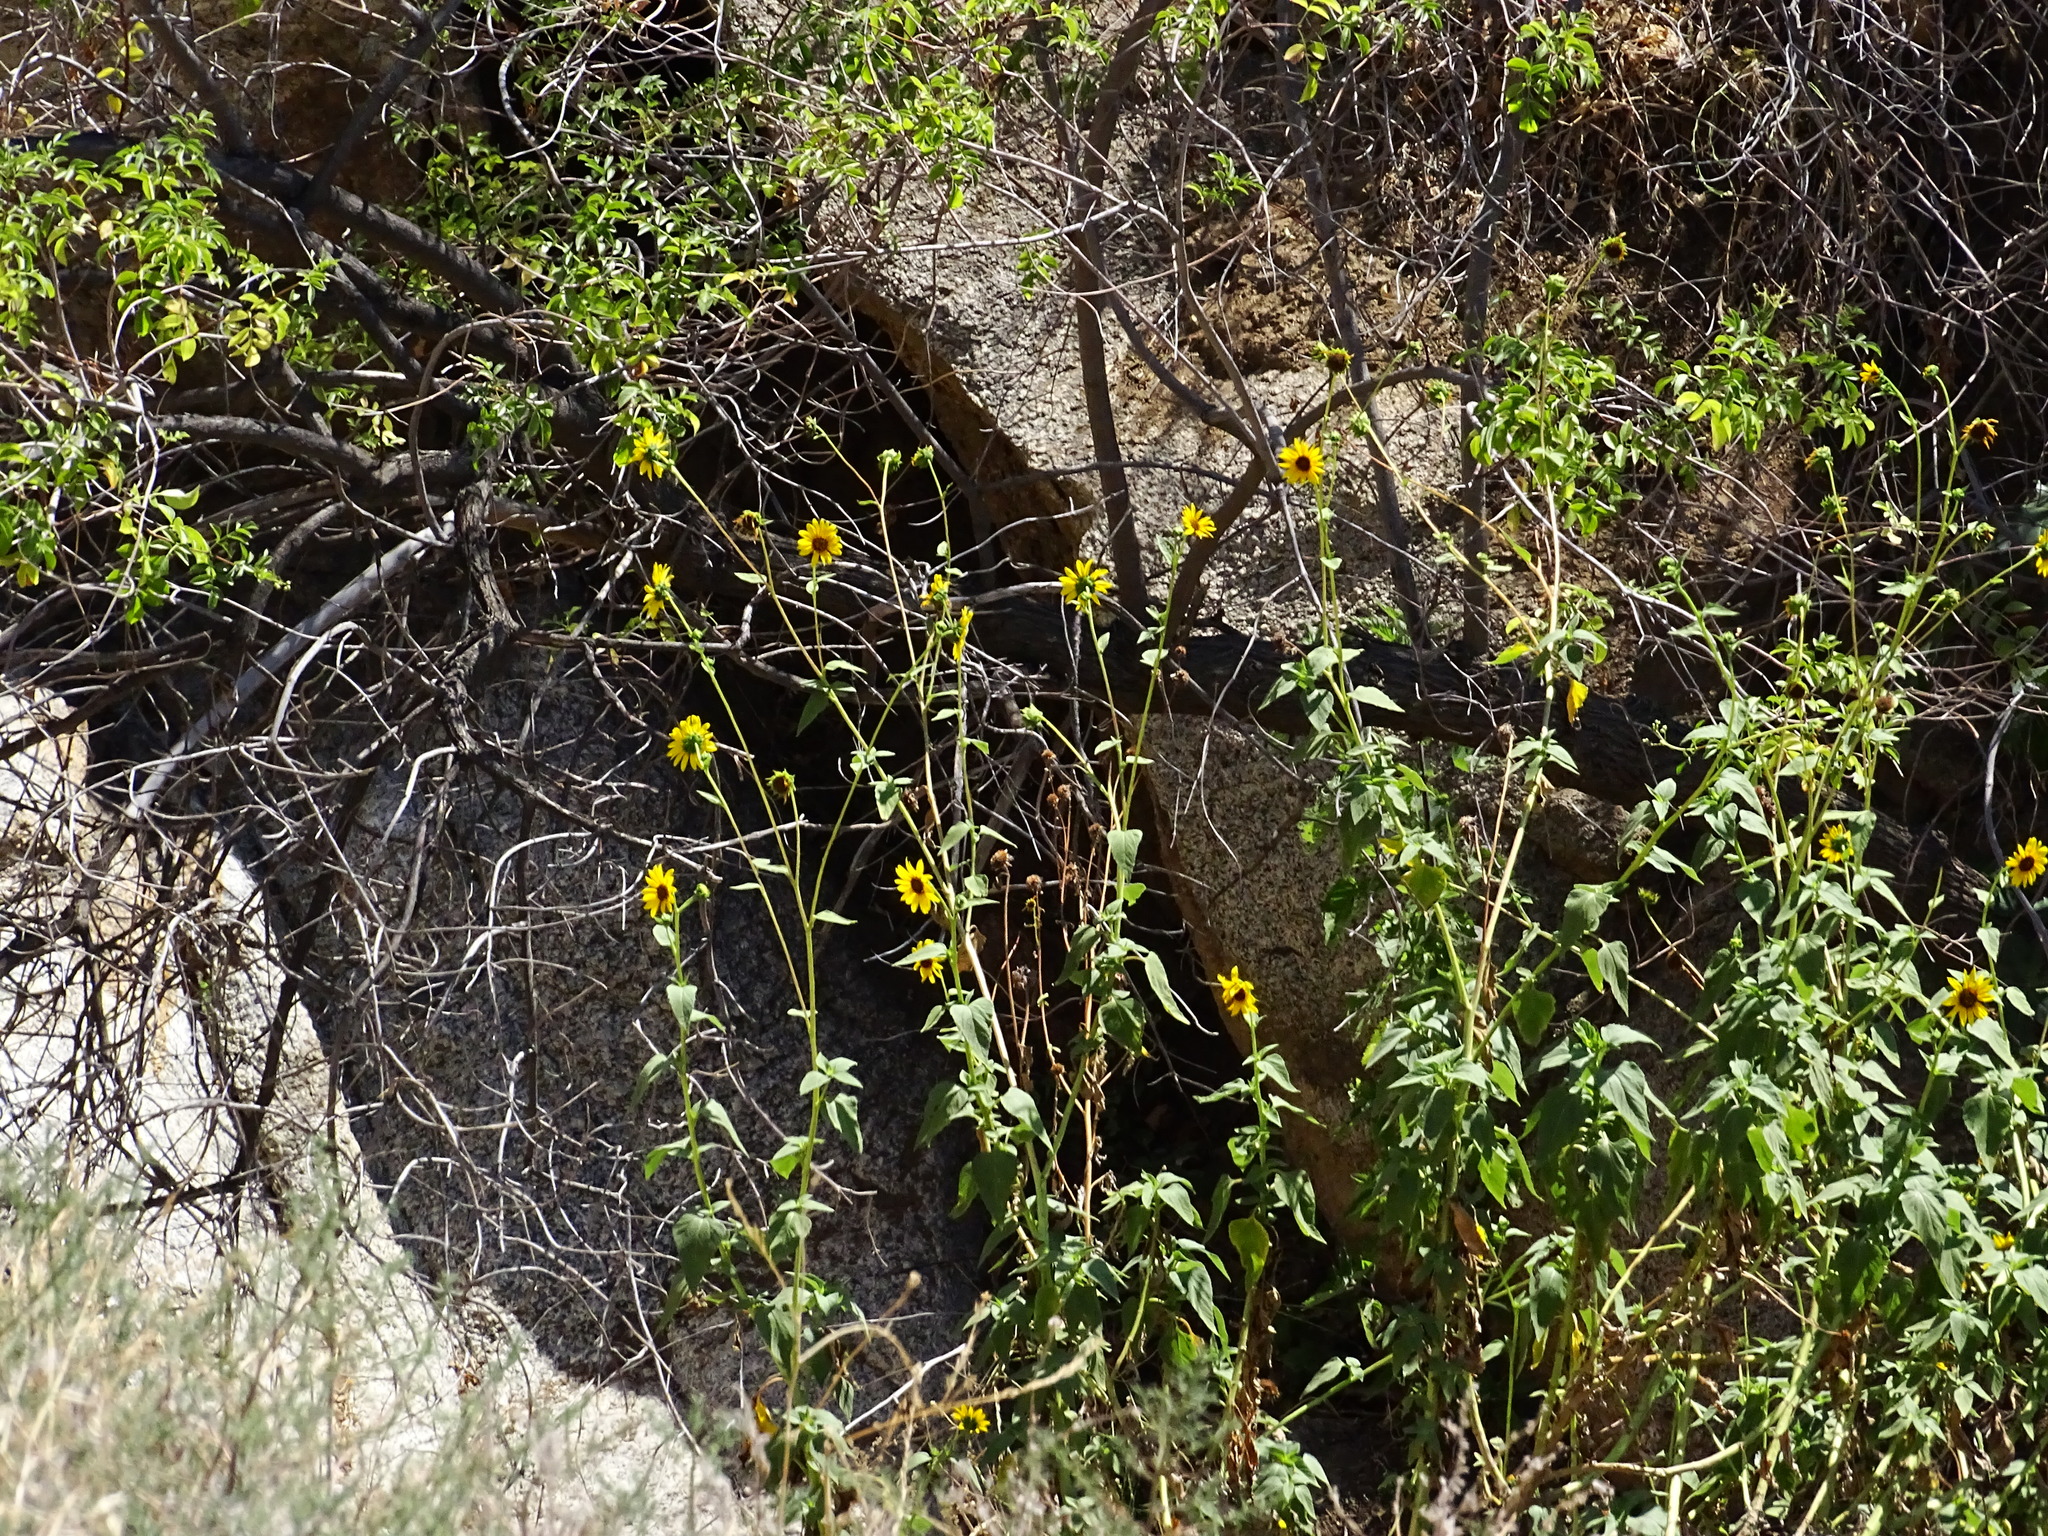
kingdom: Plantae
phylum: Tracheophyta
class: Magnoliopsida
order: Asterales
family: Asteraceae
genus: Helianthus
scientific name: Helianthus annuus
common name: Sunflower
